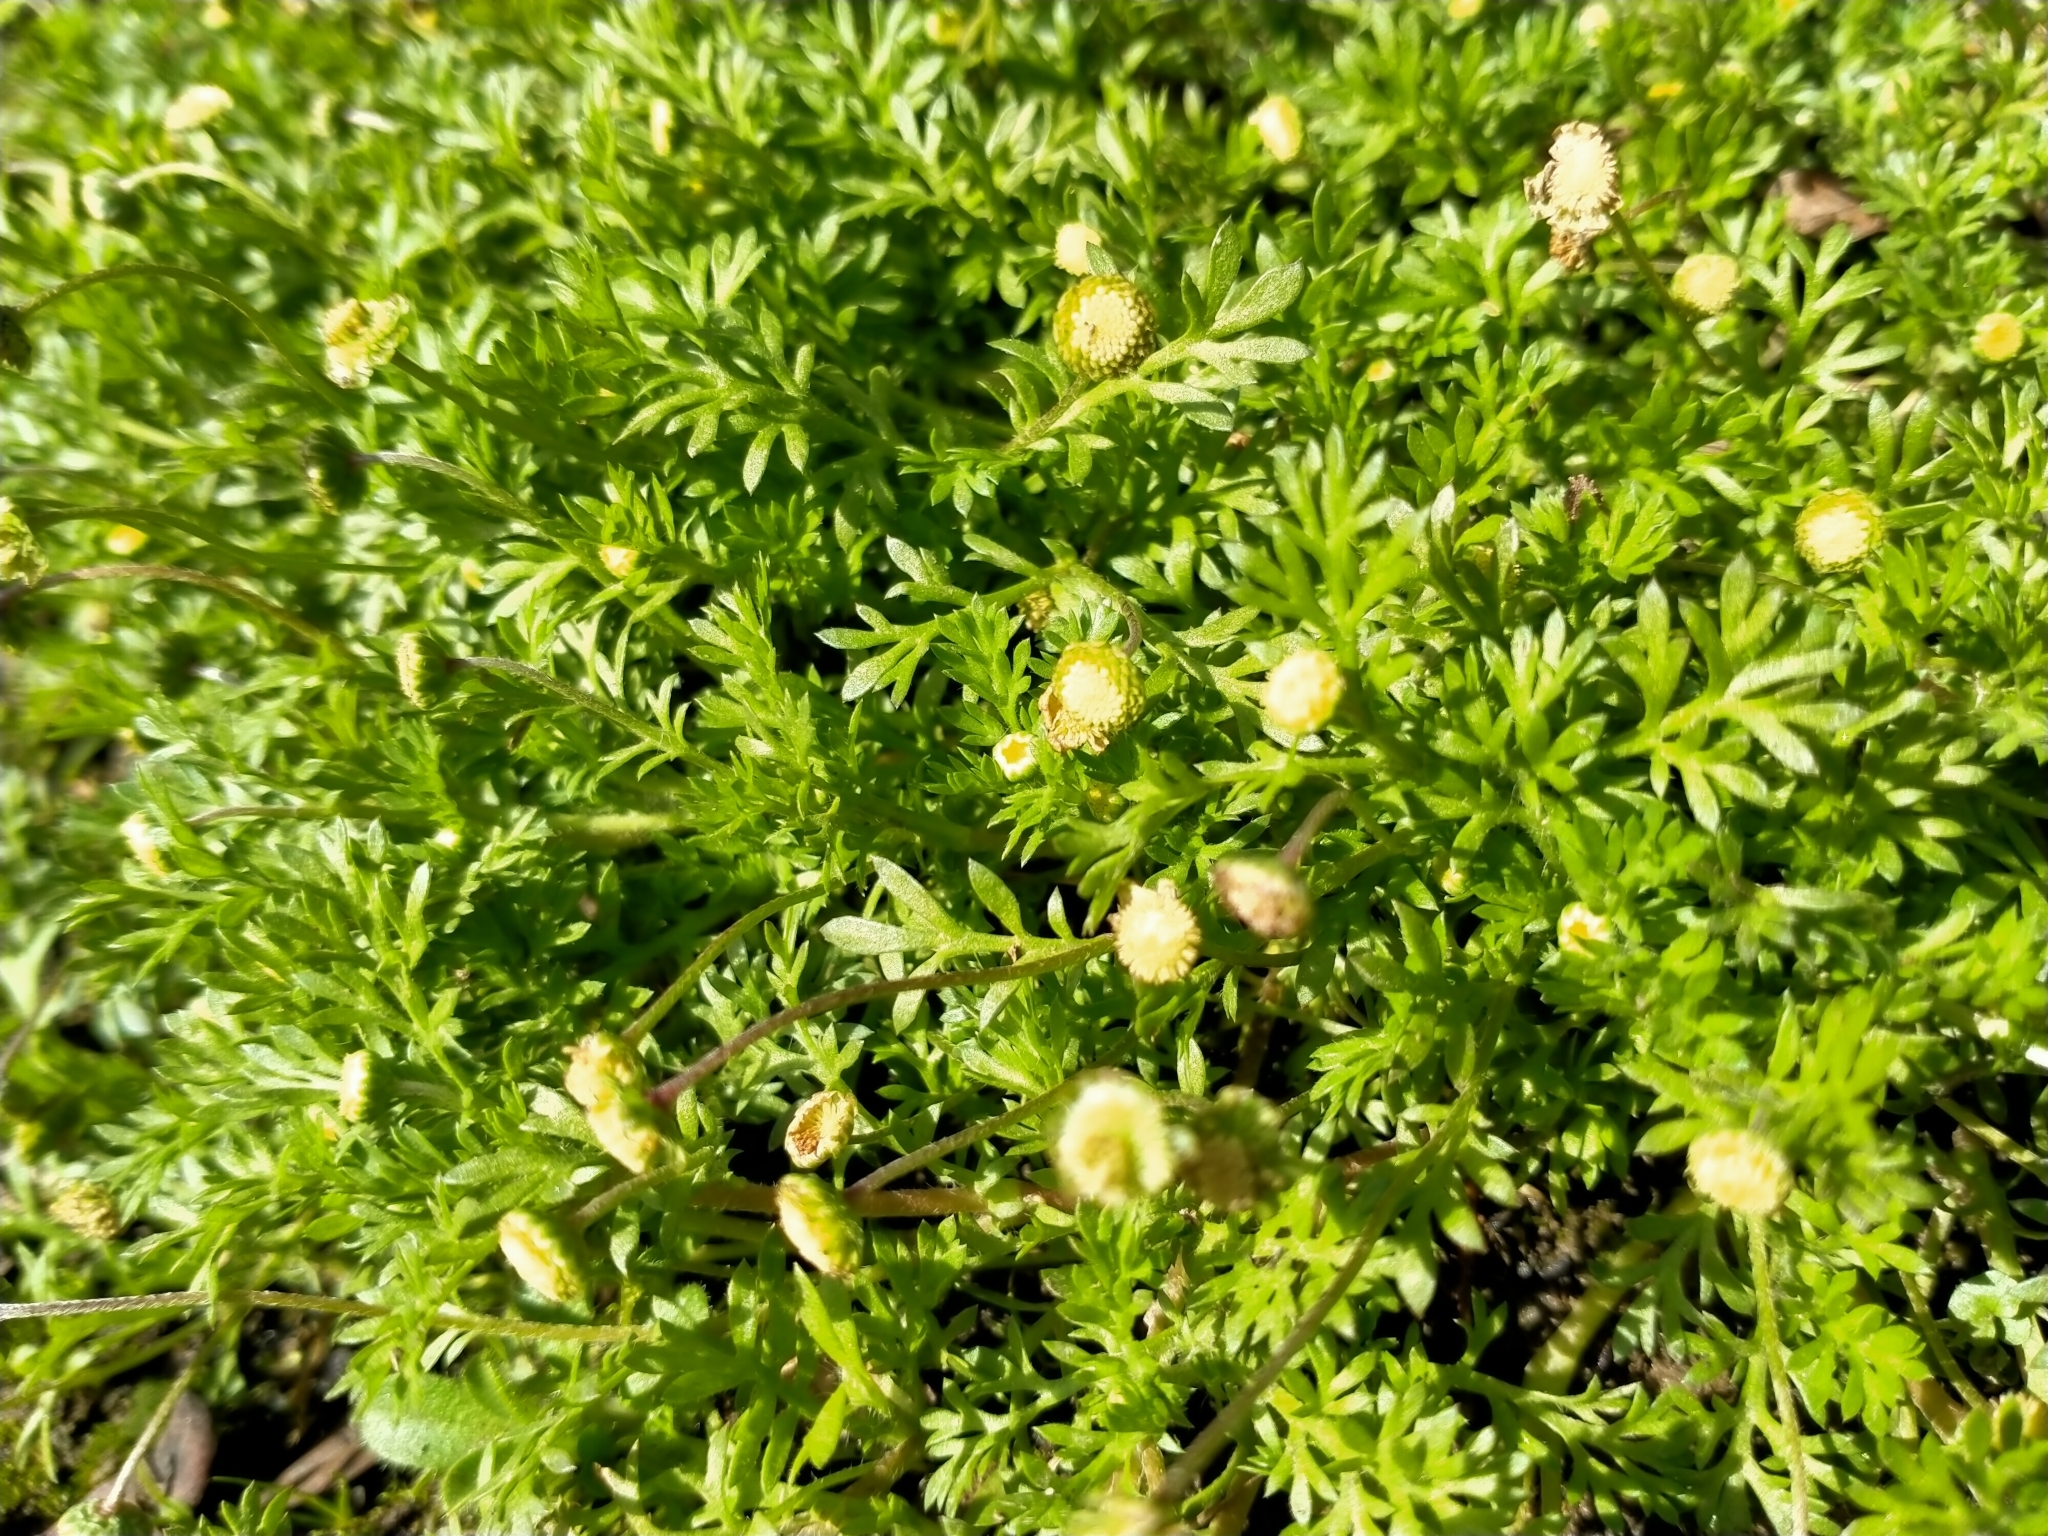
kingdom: Plantae
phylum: Tracheophyta
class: Magnoliopsida
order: Asterales
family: Asteraceae
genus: Cotula
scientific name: Cotula australis
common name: Australian waterbuttons
